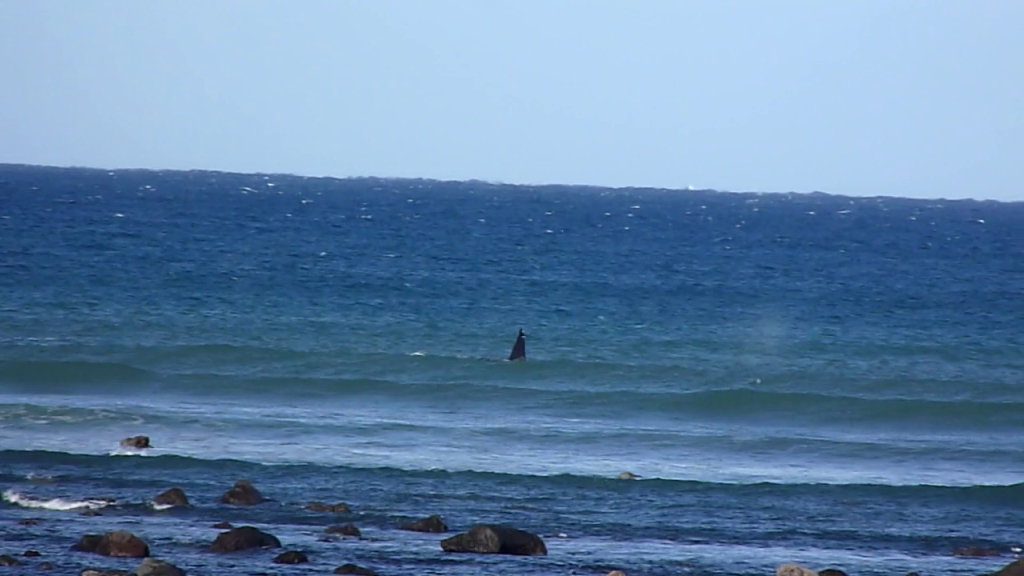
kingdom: Animalia
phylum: Chordata
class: Mammalia
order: Cetacea
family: Delphinidae
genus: Orcinus
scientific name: Orcinus orca
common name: Killer whale
